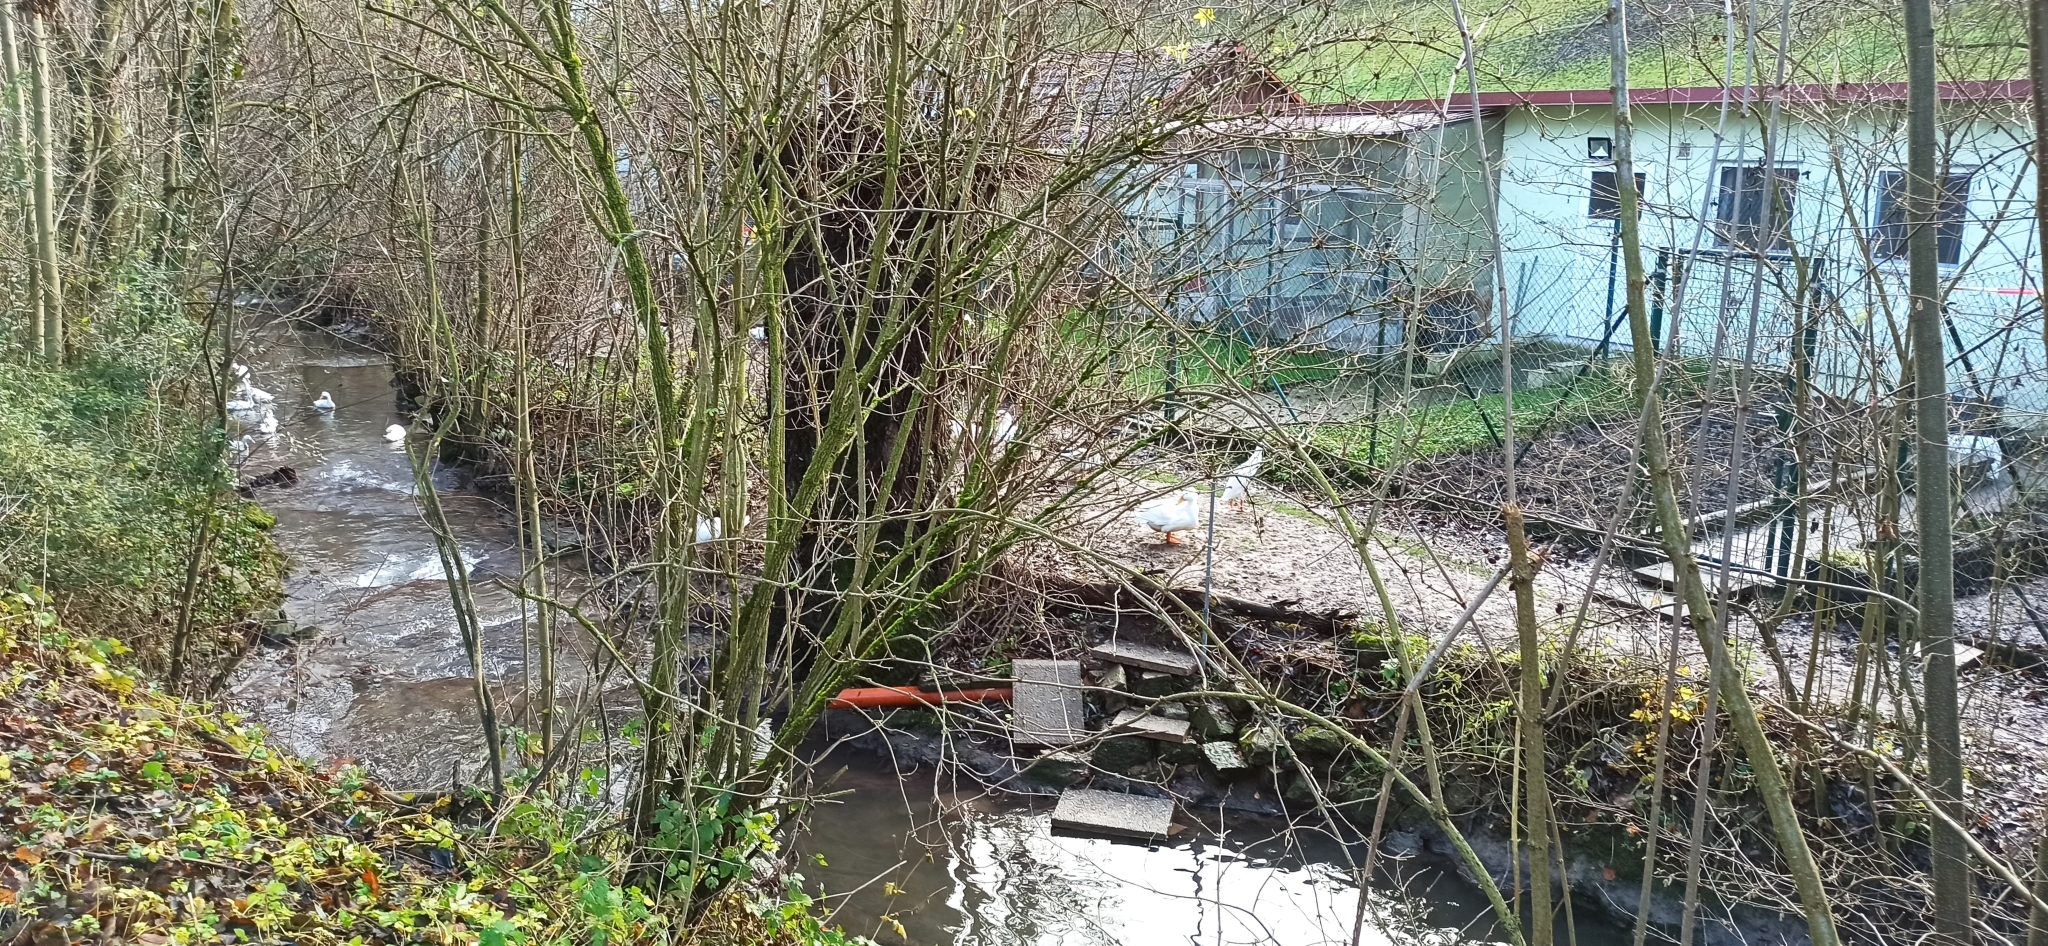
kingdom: Animalia
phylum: Chordata
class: Aves
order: Anseriformes
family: Anatidae
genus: Anas
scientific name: Anas platyrhynchos
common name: Mallard
